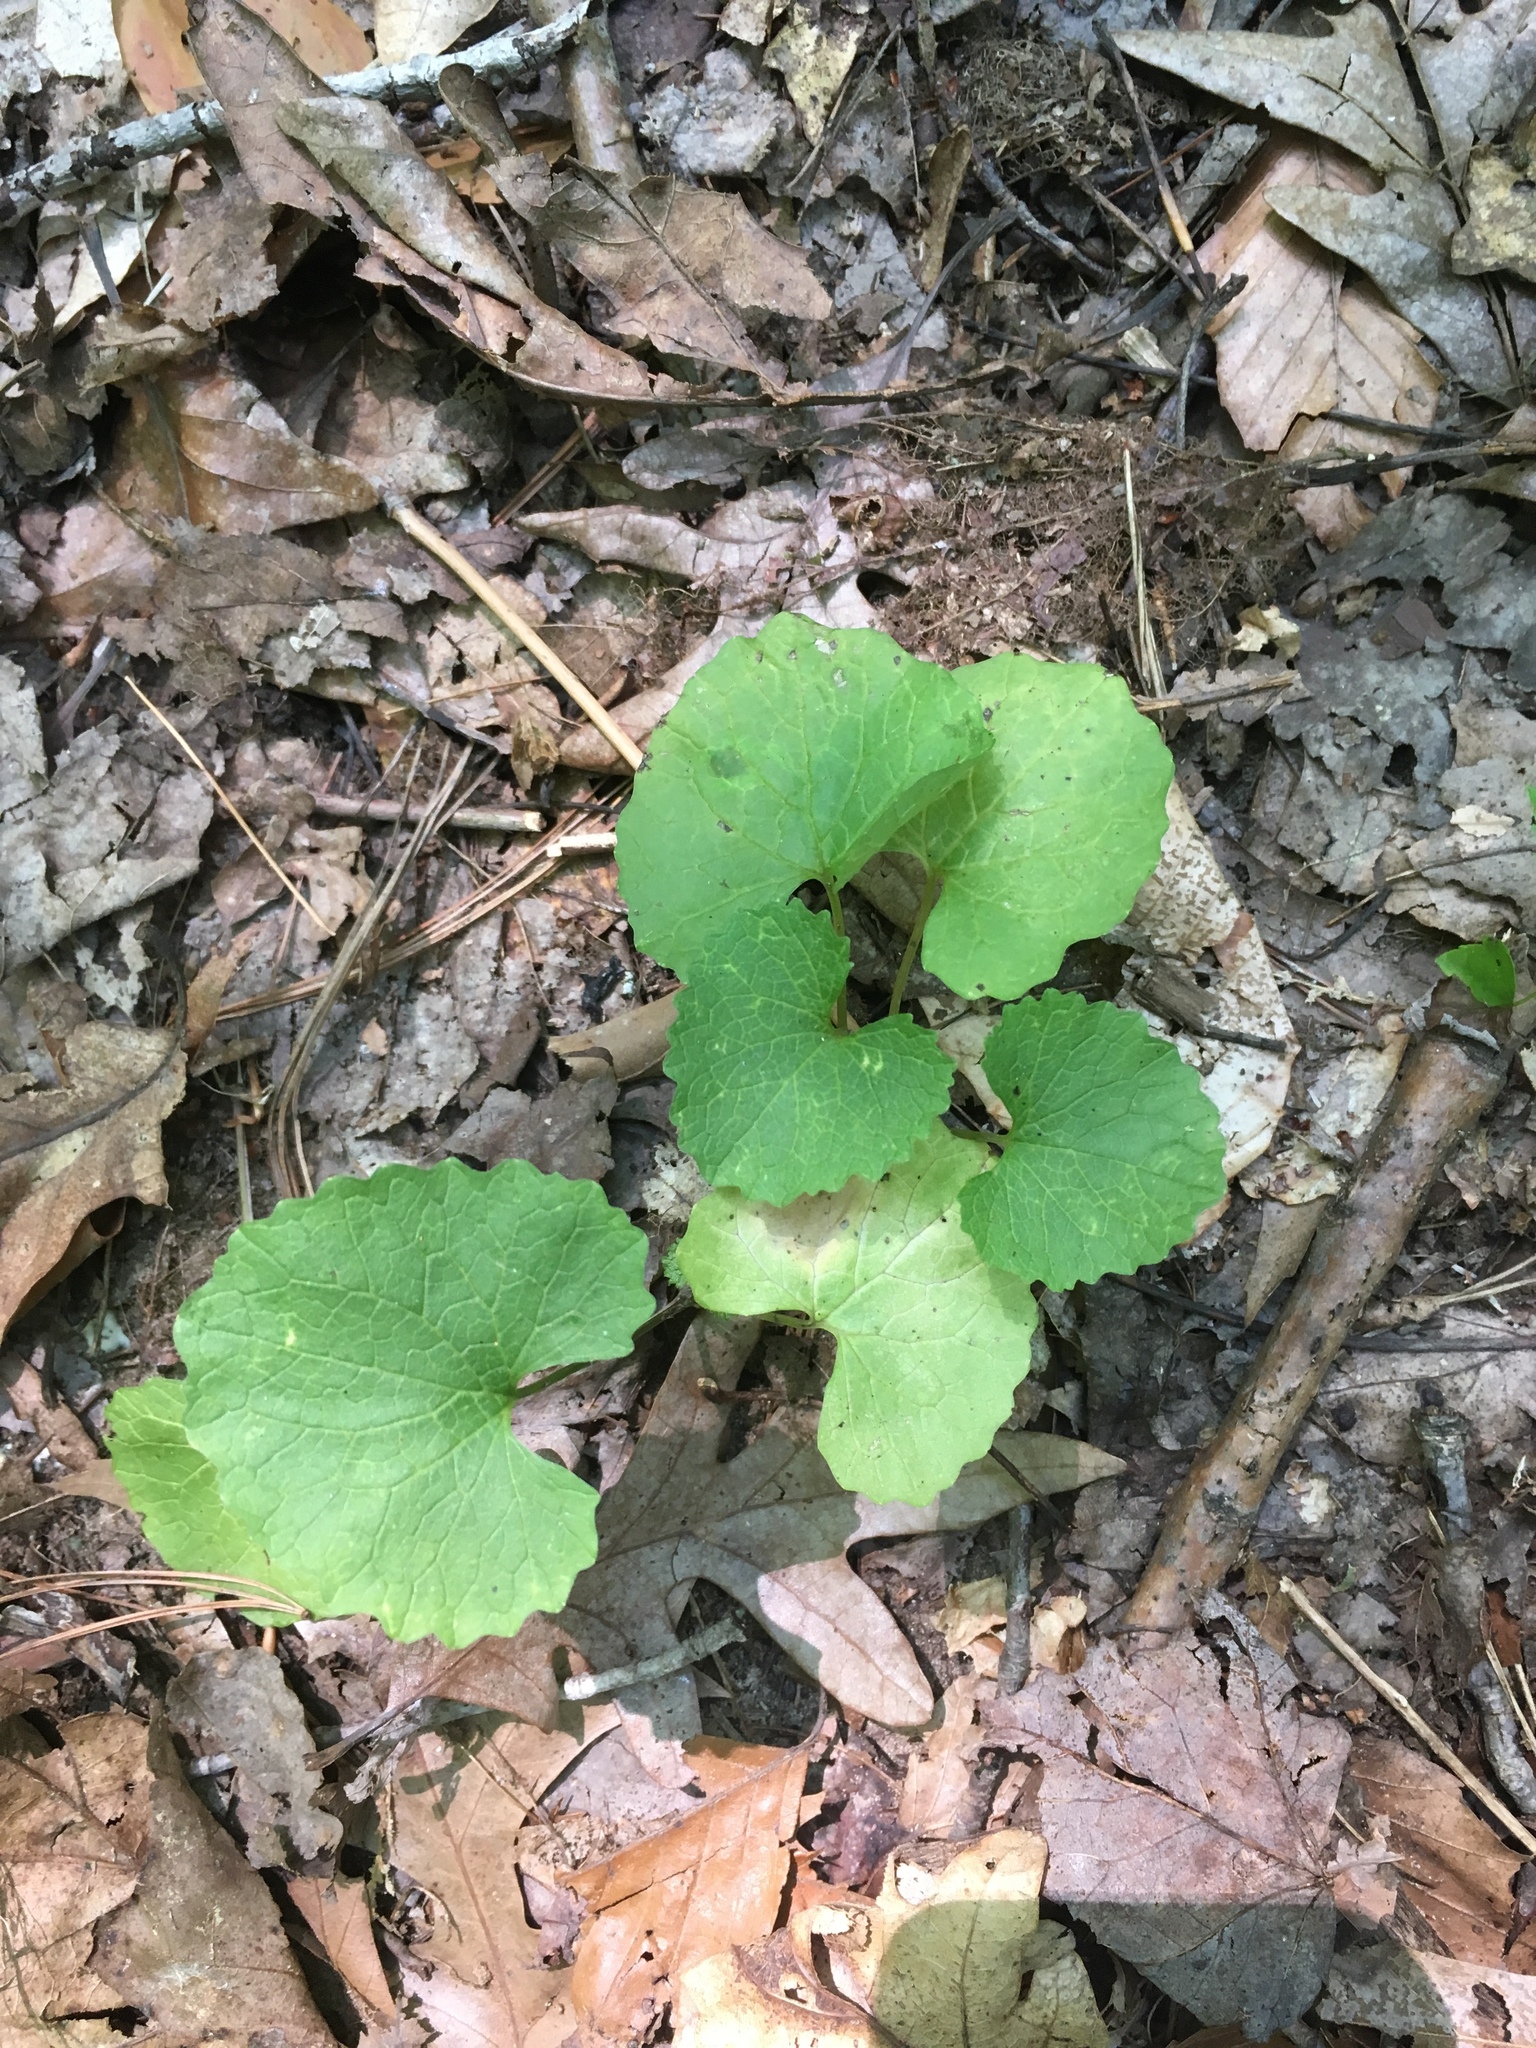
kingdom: Plantae
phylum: Tracheophyta
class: Magnoliopsida
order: Brassicales
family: Brassicaceae
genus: Alliaria
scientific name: Alliaria petiolata
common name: Garlic mustard
